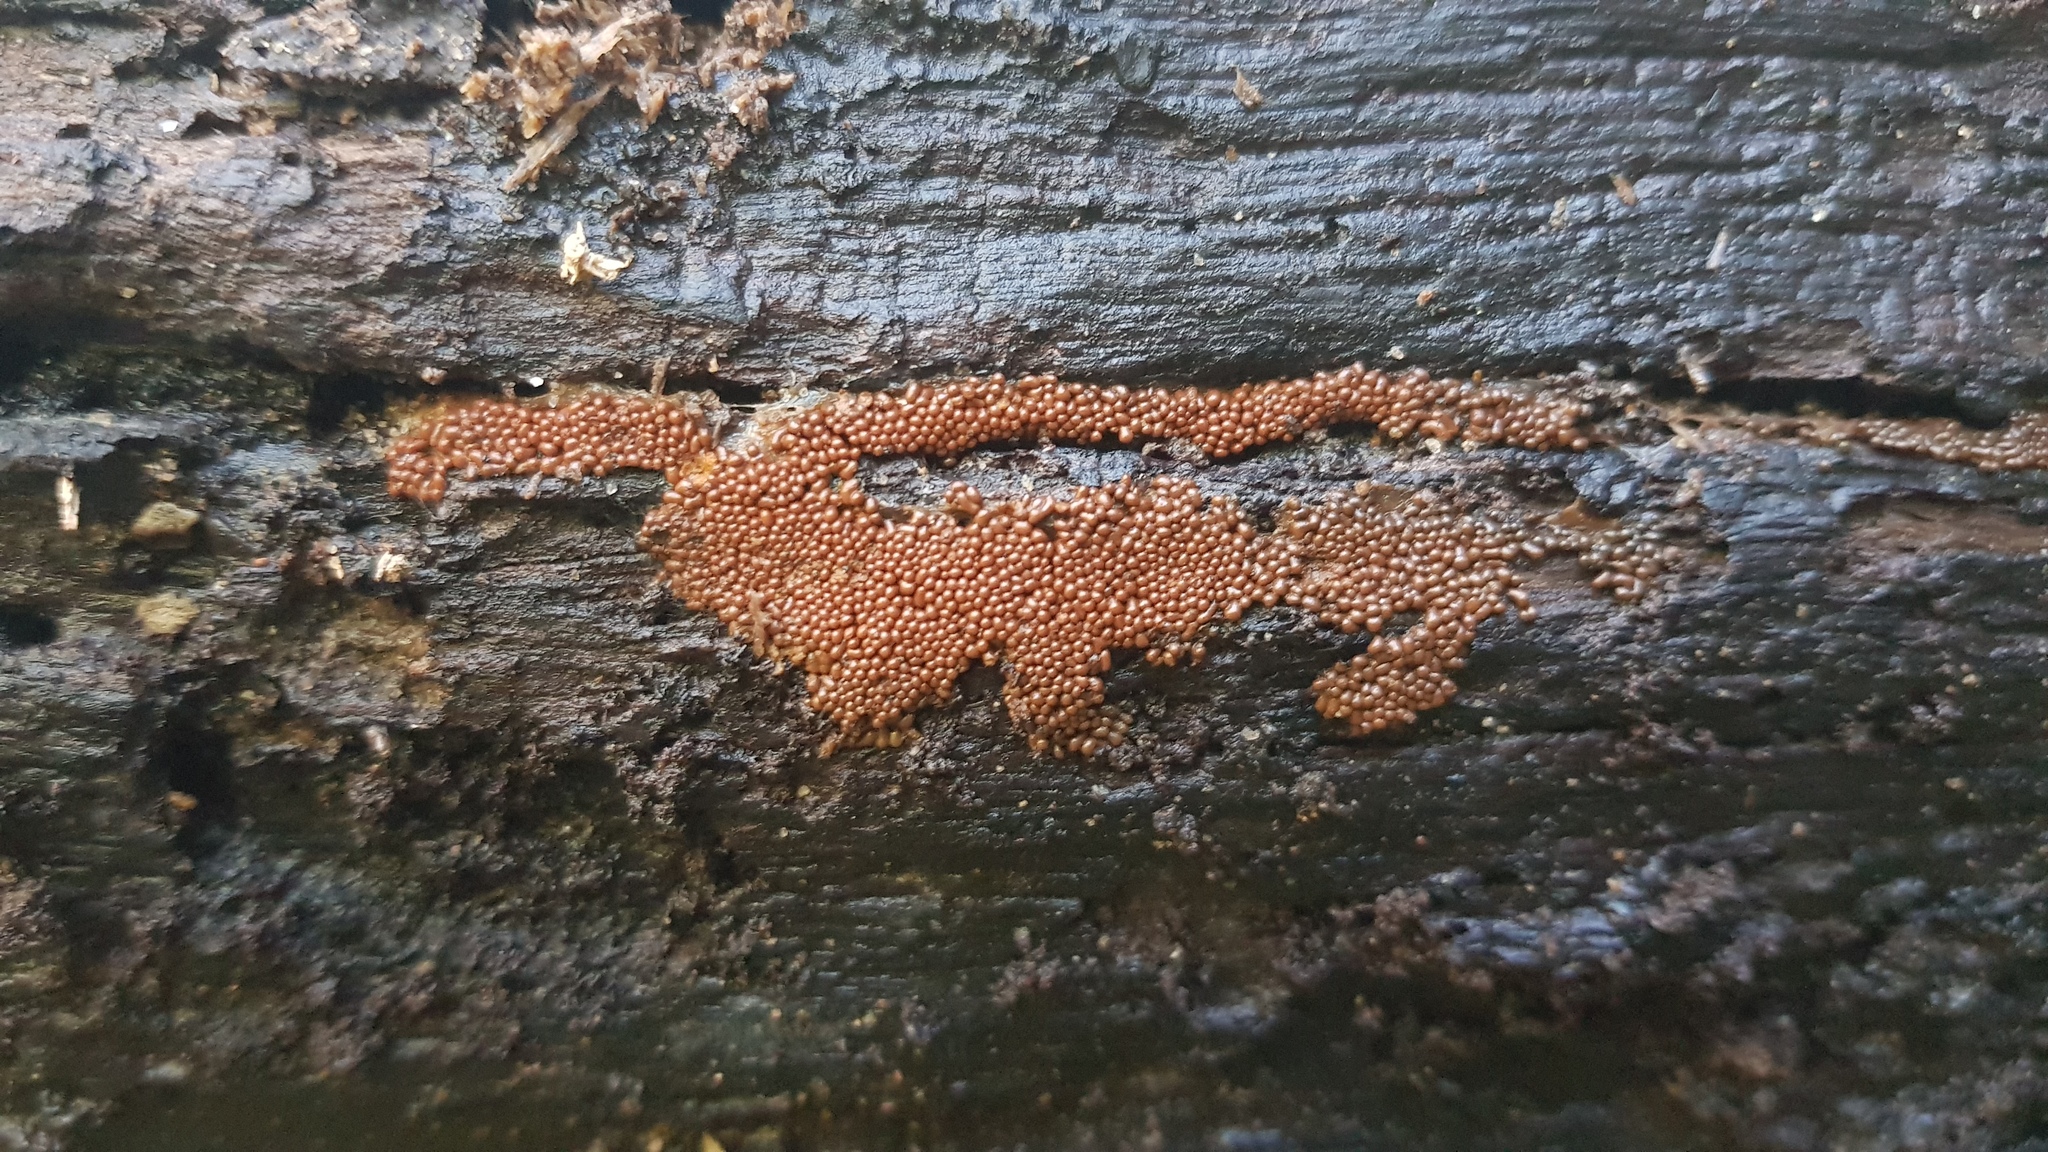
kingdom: Protozoa
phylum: Mycetozoa
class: Myxomycetes
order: Trichiales
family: Trichiaceae
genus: Oligonema
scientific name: Oligonema affine
